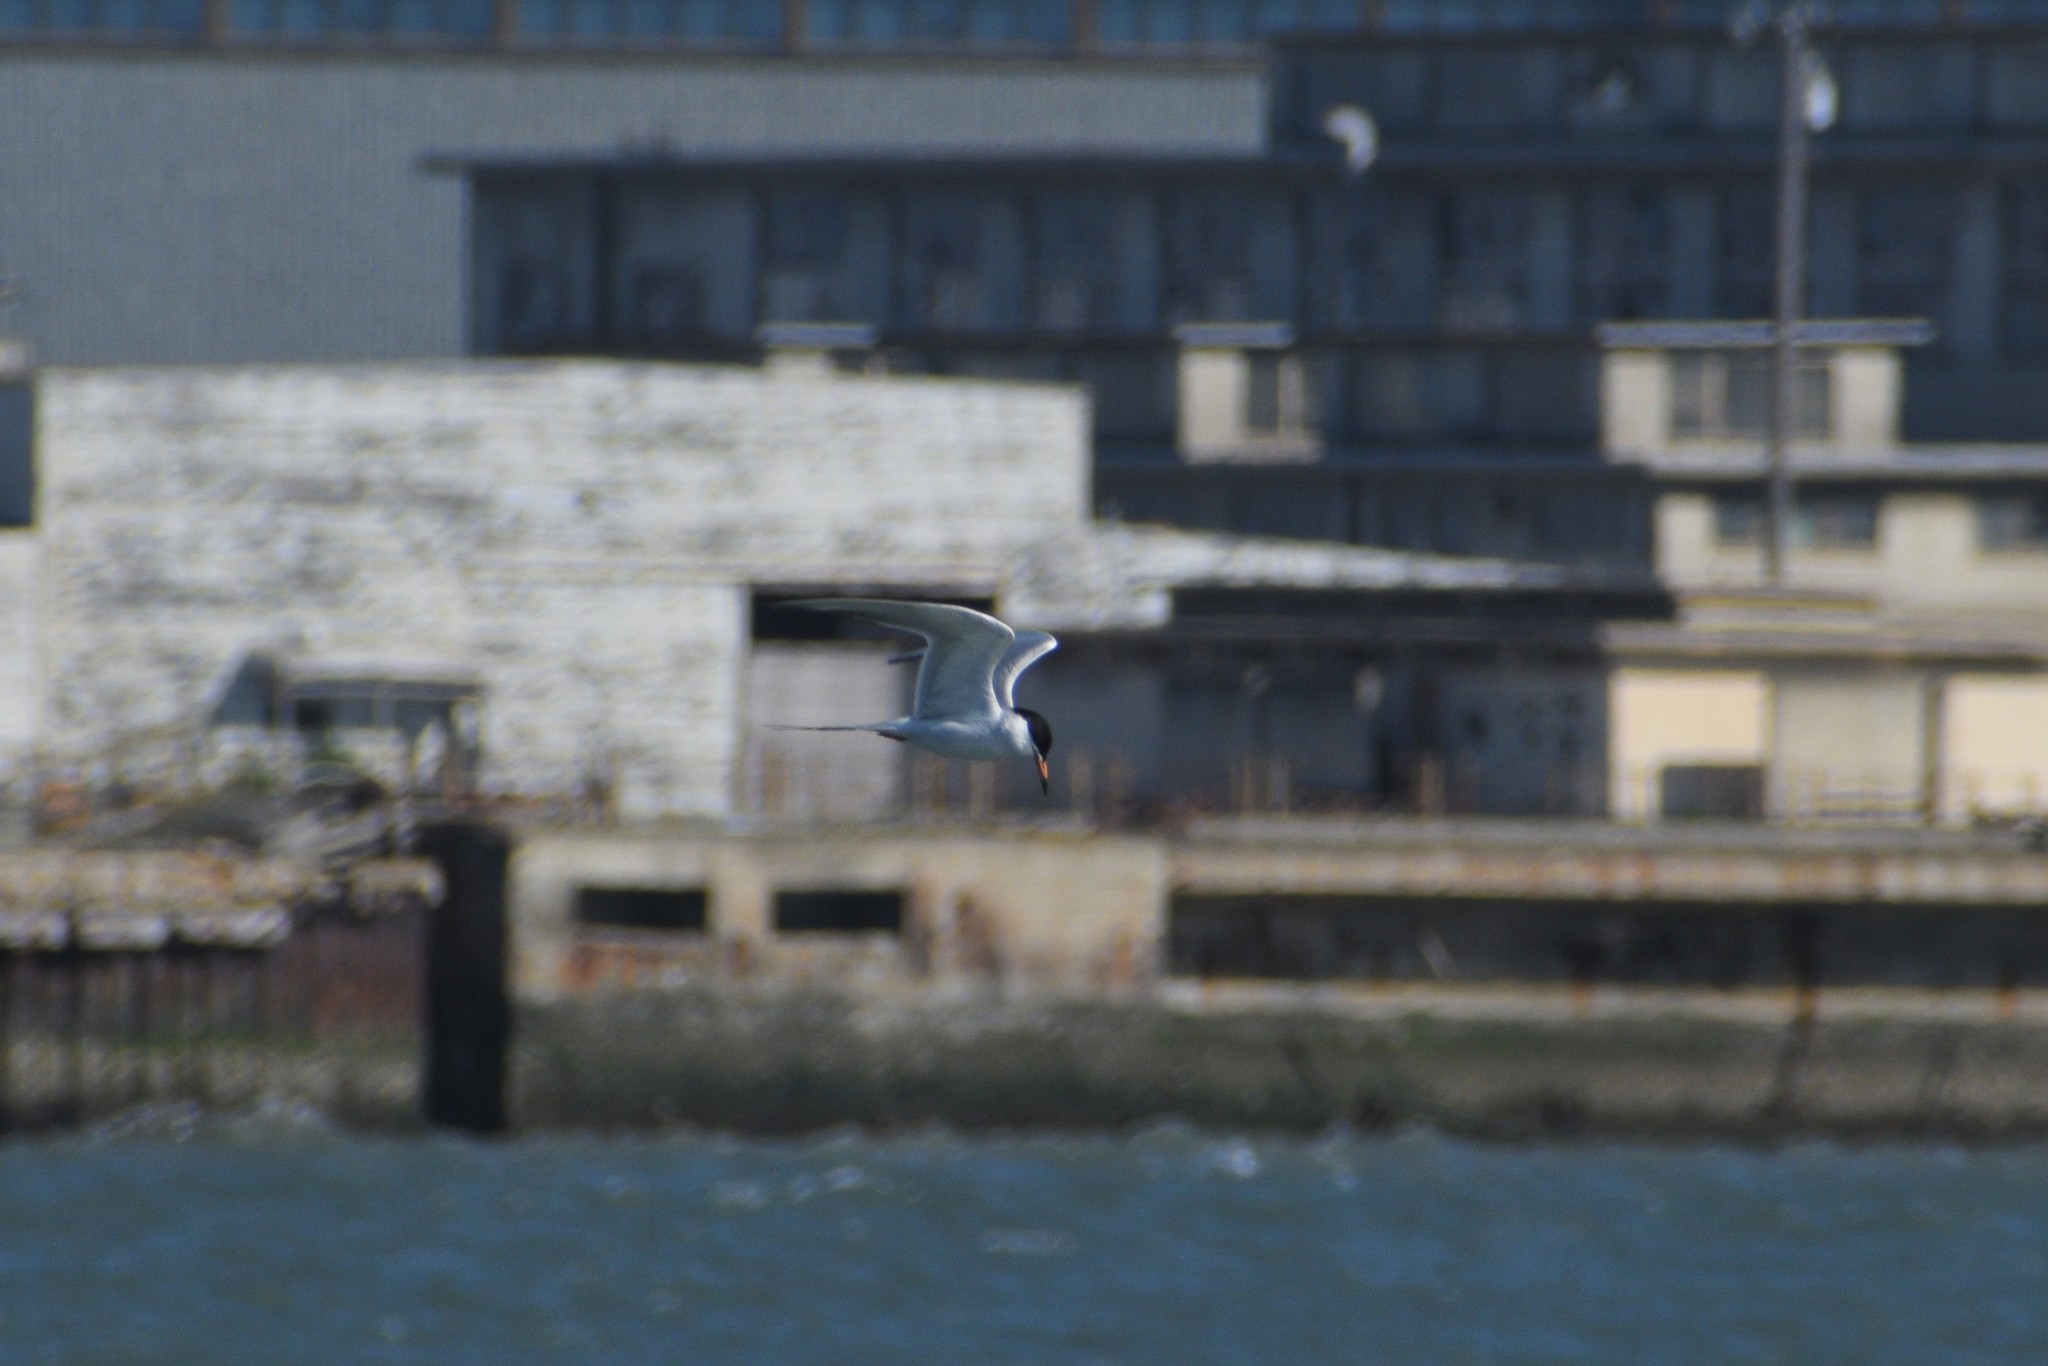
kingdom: Animalia
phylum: Chordata
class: Aves
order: Charadriiformes
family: Laridae
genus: Sterna
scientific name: Sterna forsteri
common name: Forster's tern
